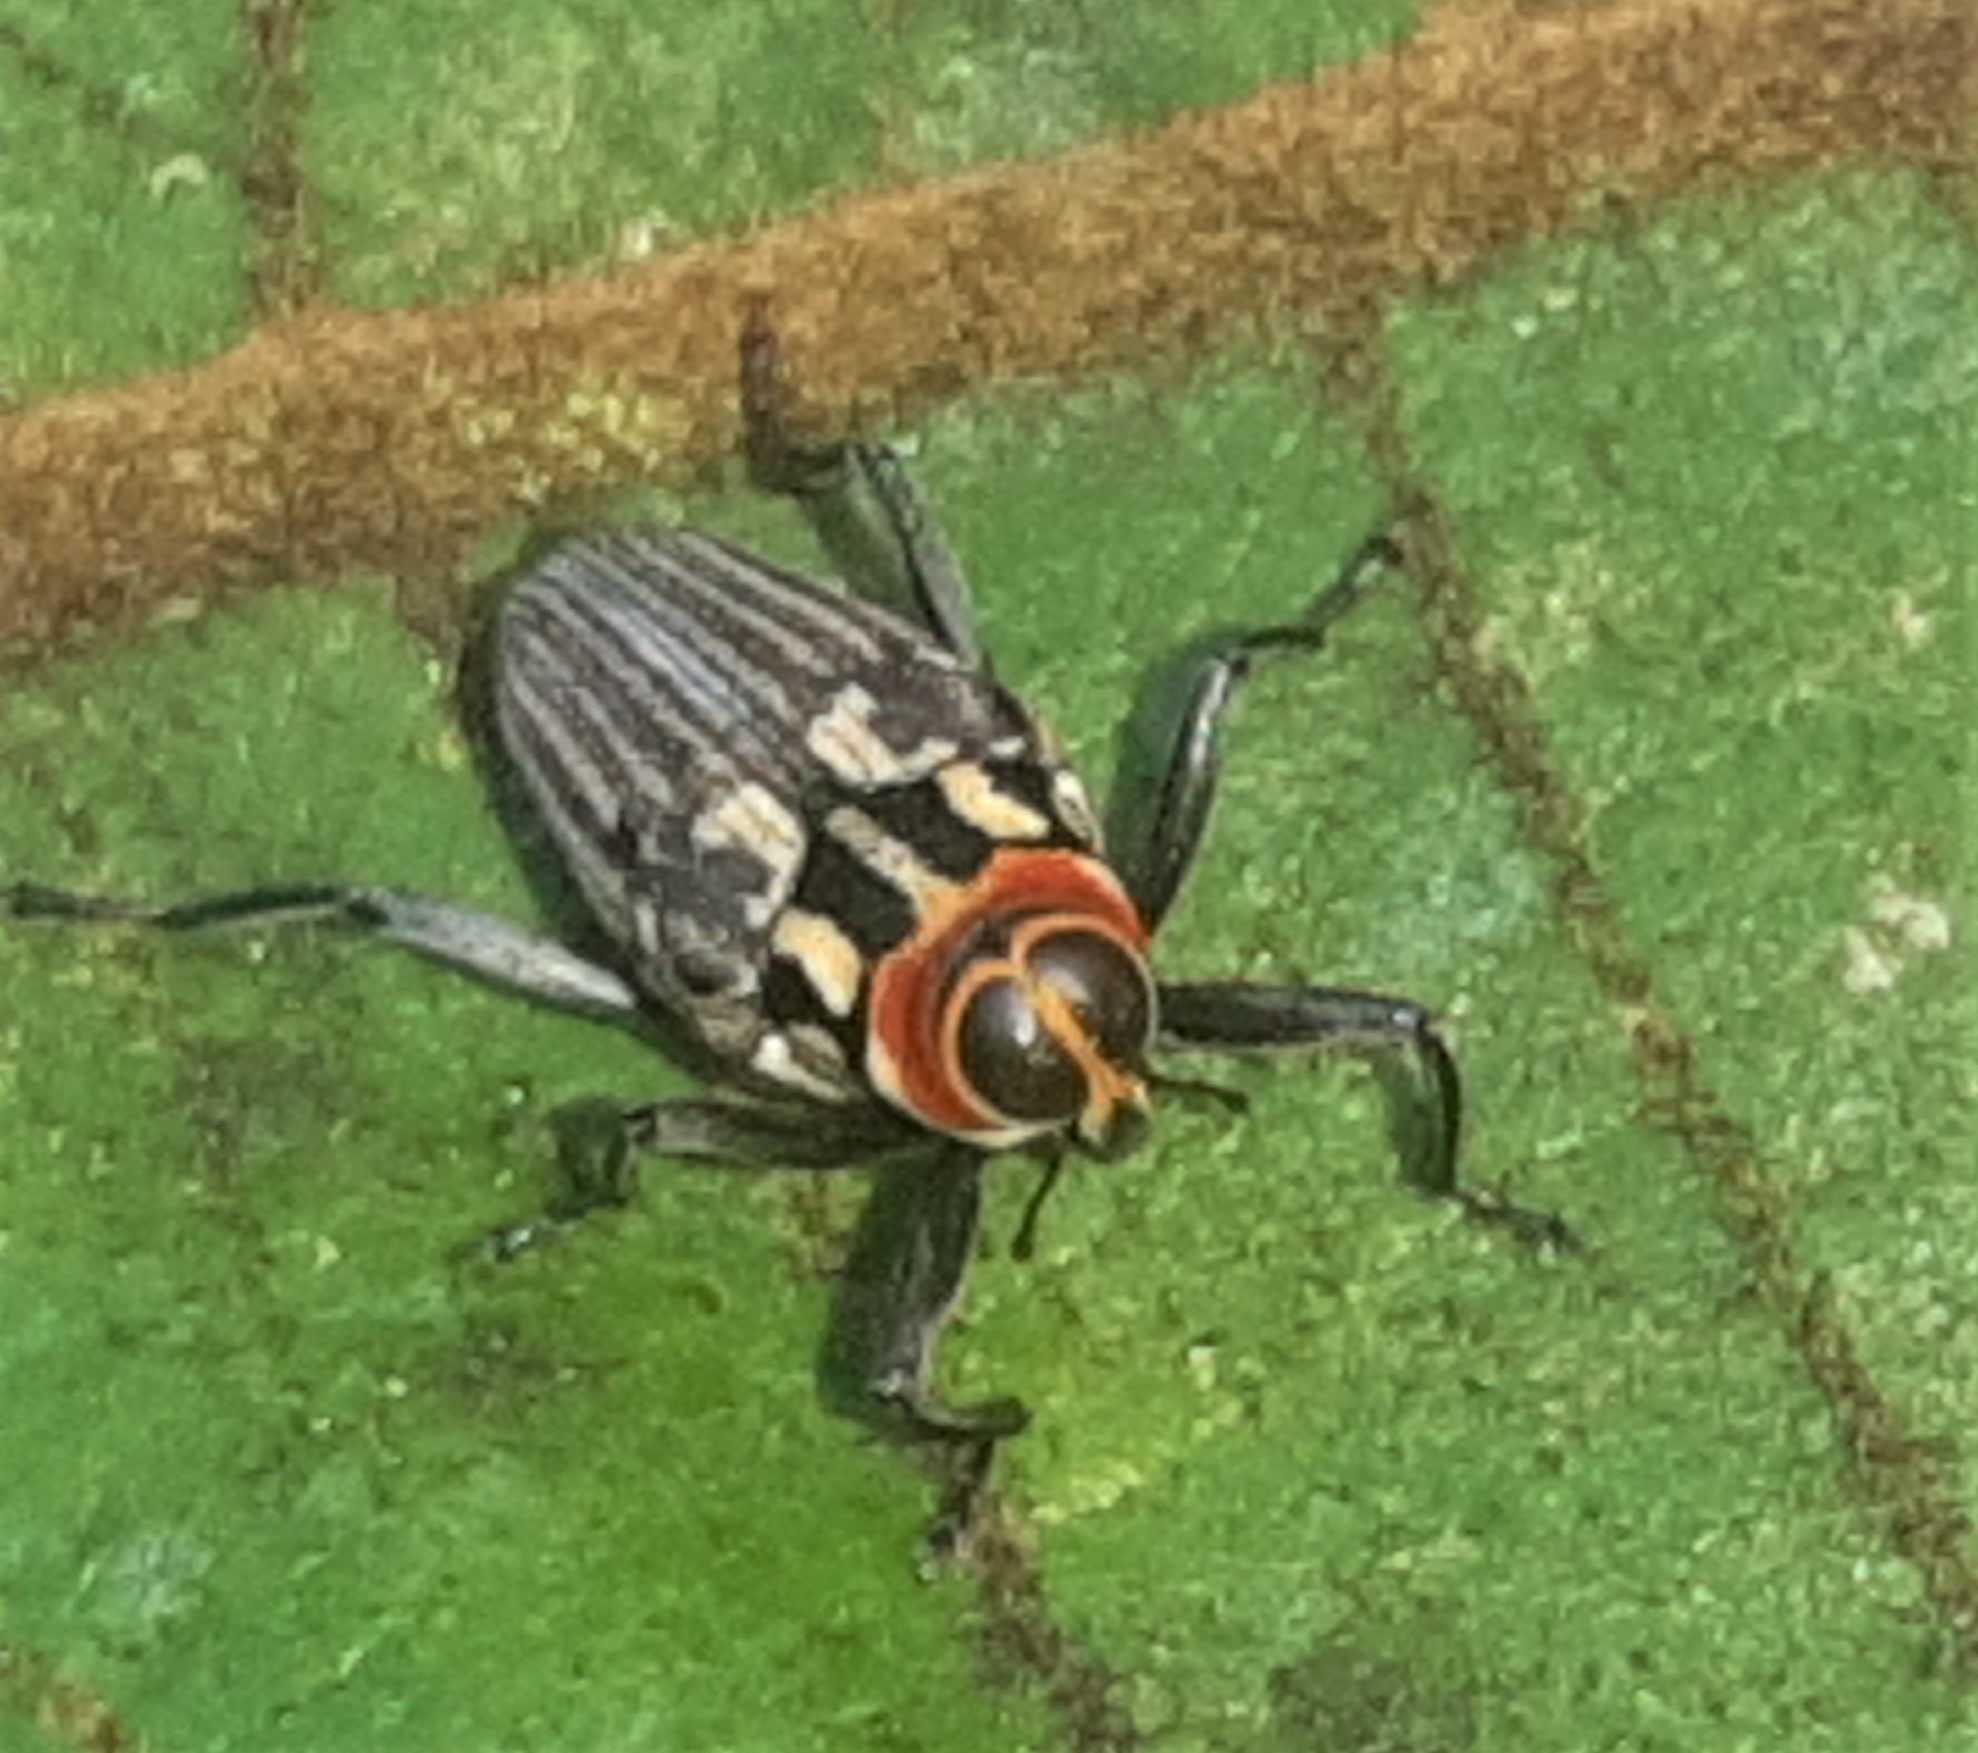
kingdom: Animalia
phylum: Arthropoda
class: Insecta
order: Coleoptera
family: Curculionidae
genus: Macrocopturus
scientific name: Macrocopturus
